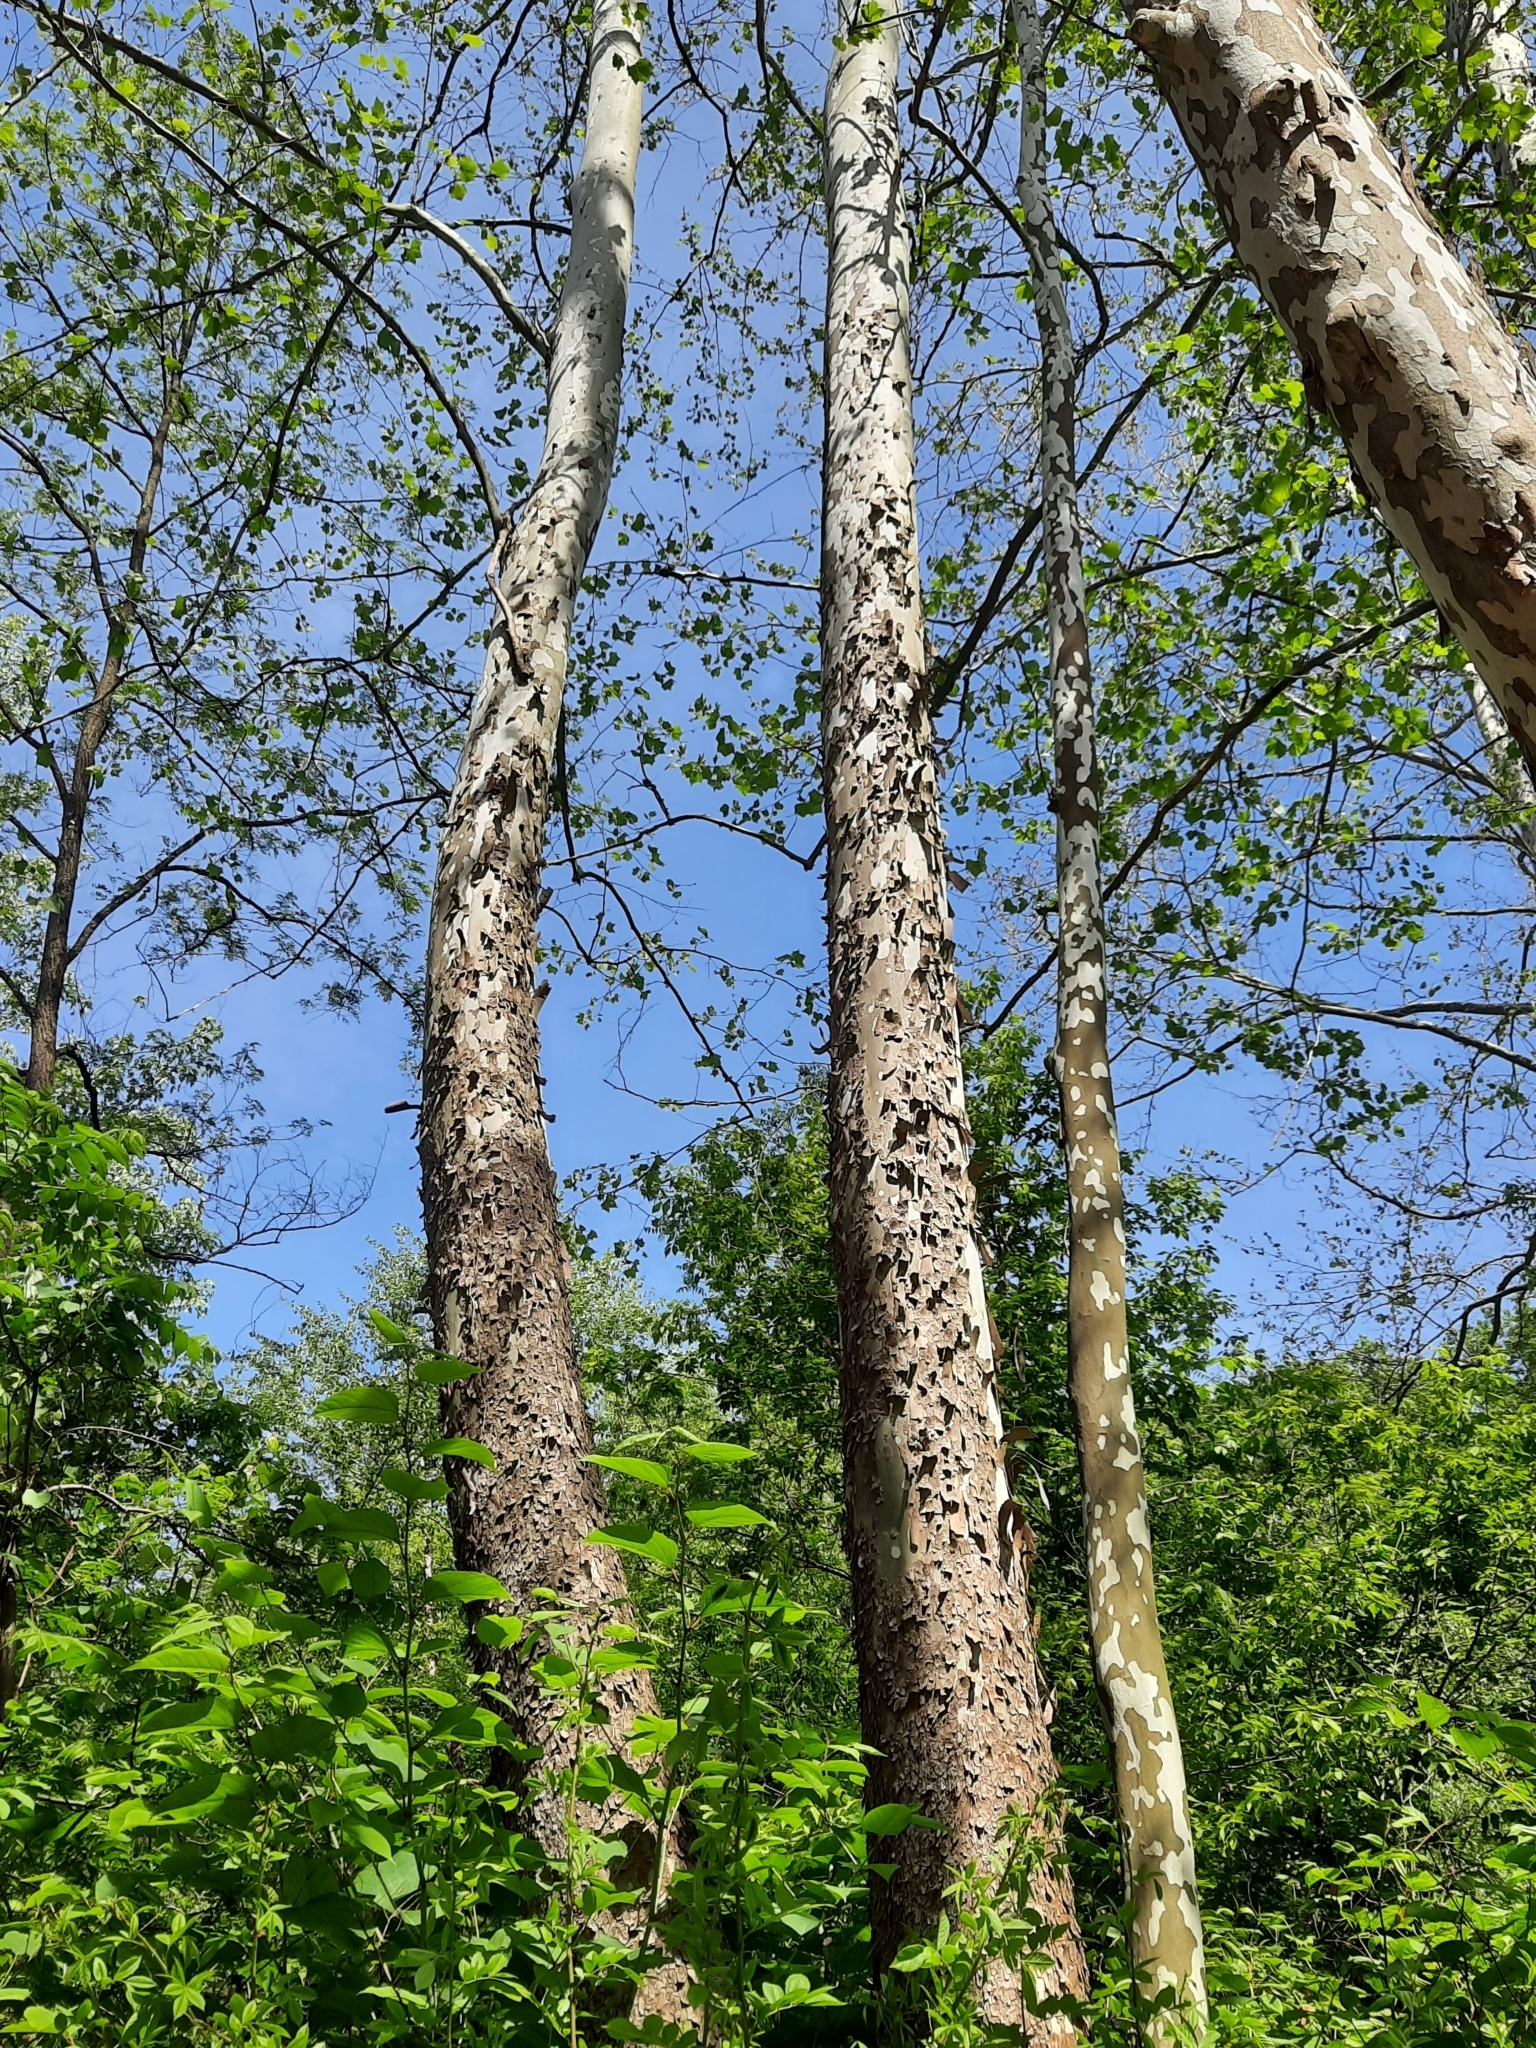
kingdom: Plantae
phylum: Tracheophyta
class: Magnoliopsida
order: Proteales
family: Platanaceae
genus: Platanus
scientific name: Platanus occidentalis
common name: American sycamore
